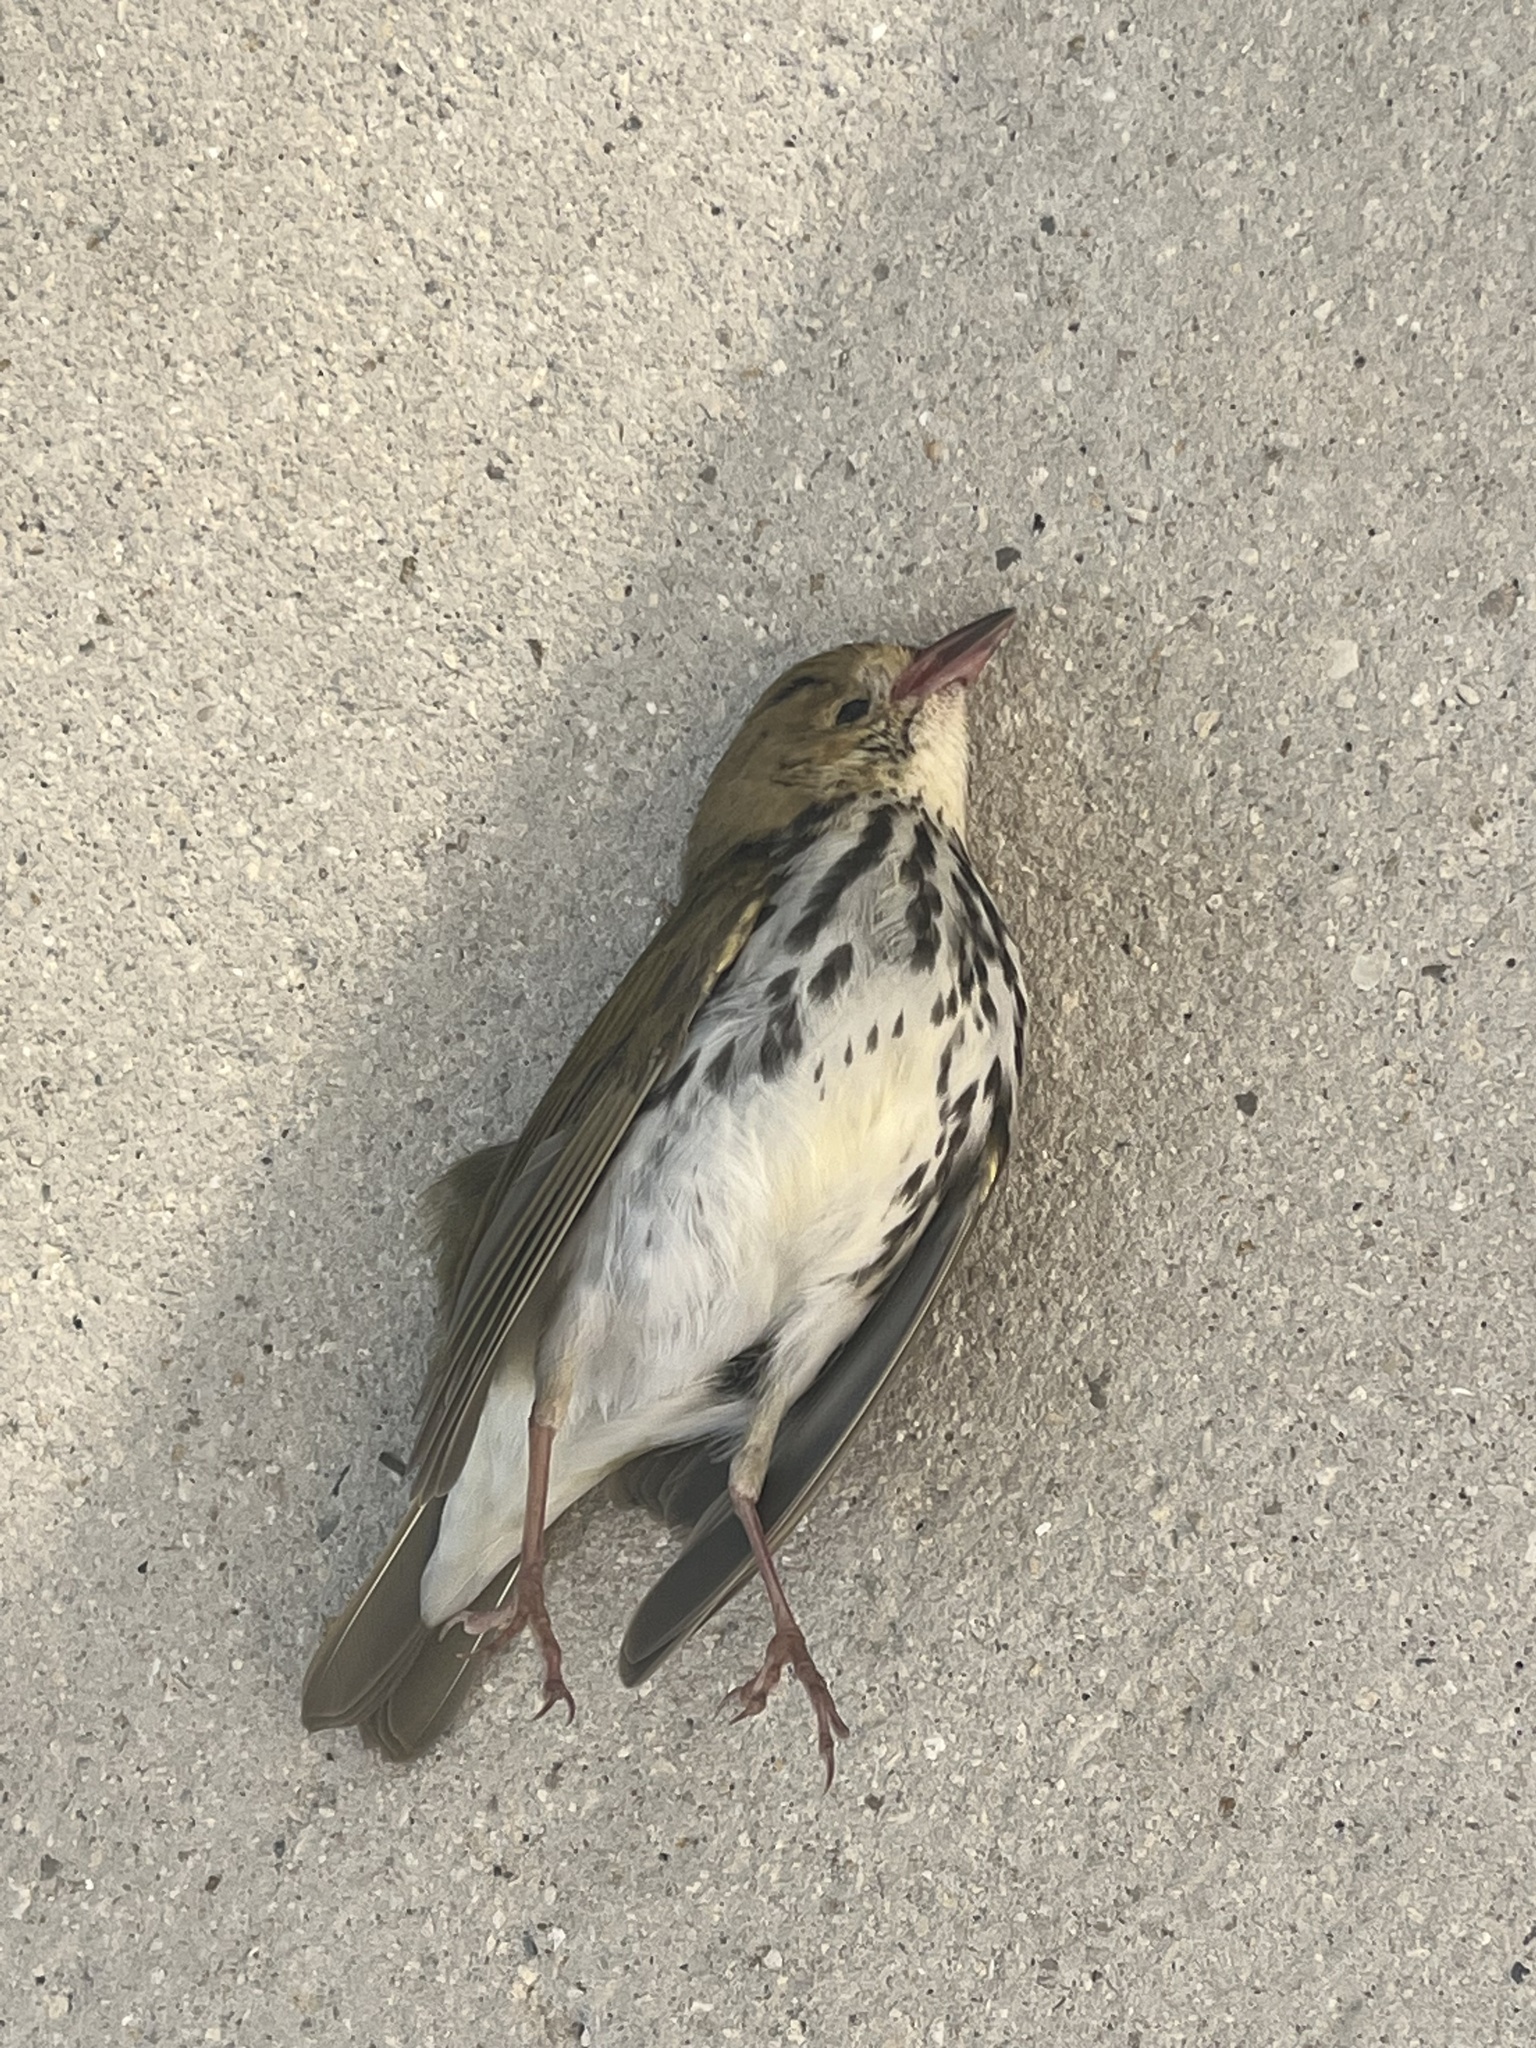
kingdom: Animalia
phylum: Chordata
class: Aves
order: Passeriformes
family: Parulidae
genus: Seiurus
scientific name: Seiurus aurocapilla
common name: Ovenbird
